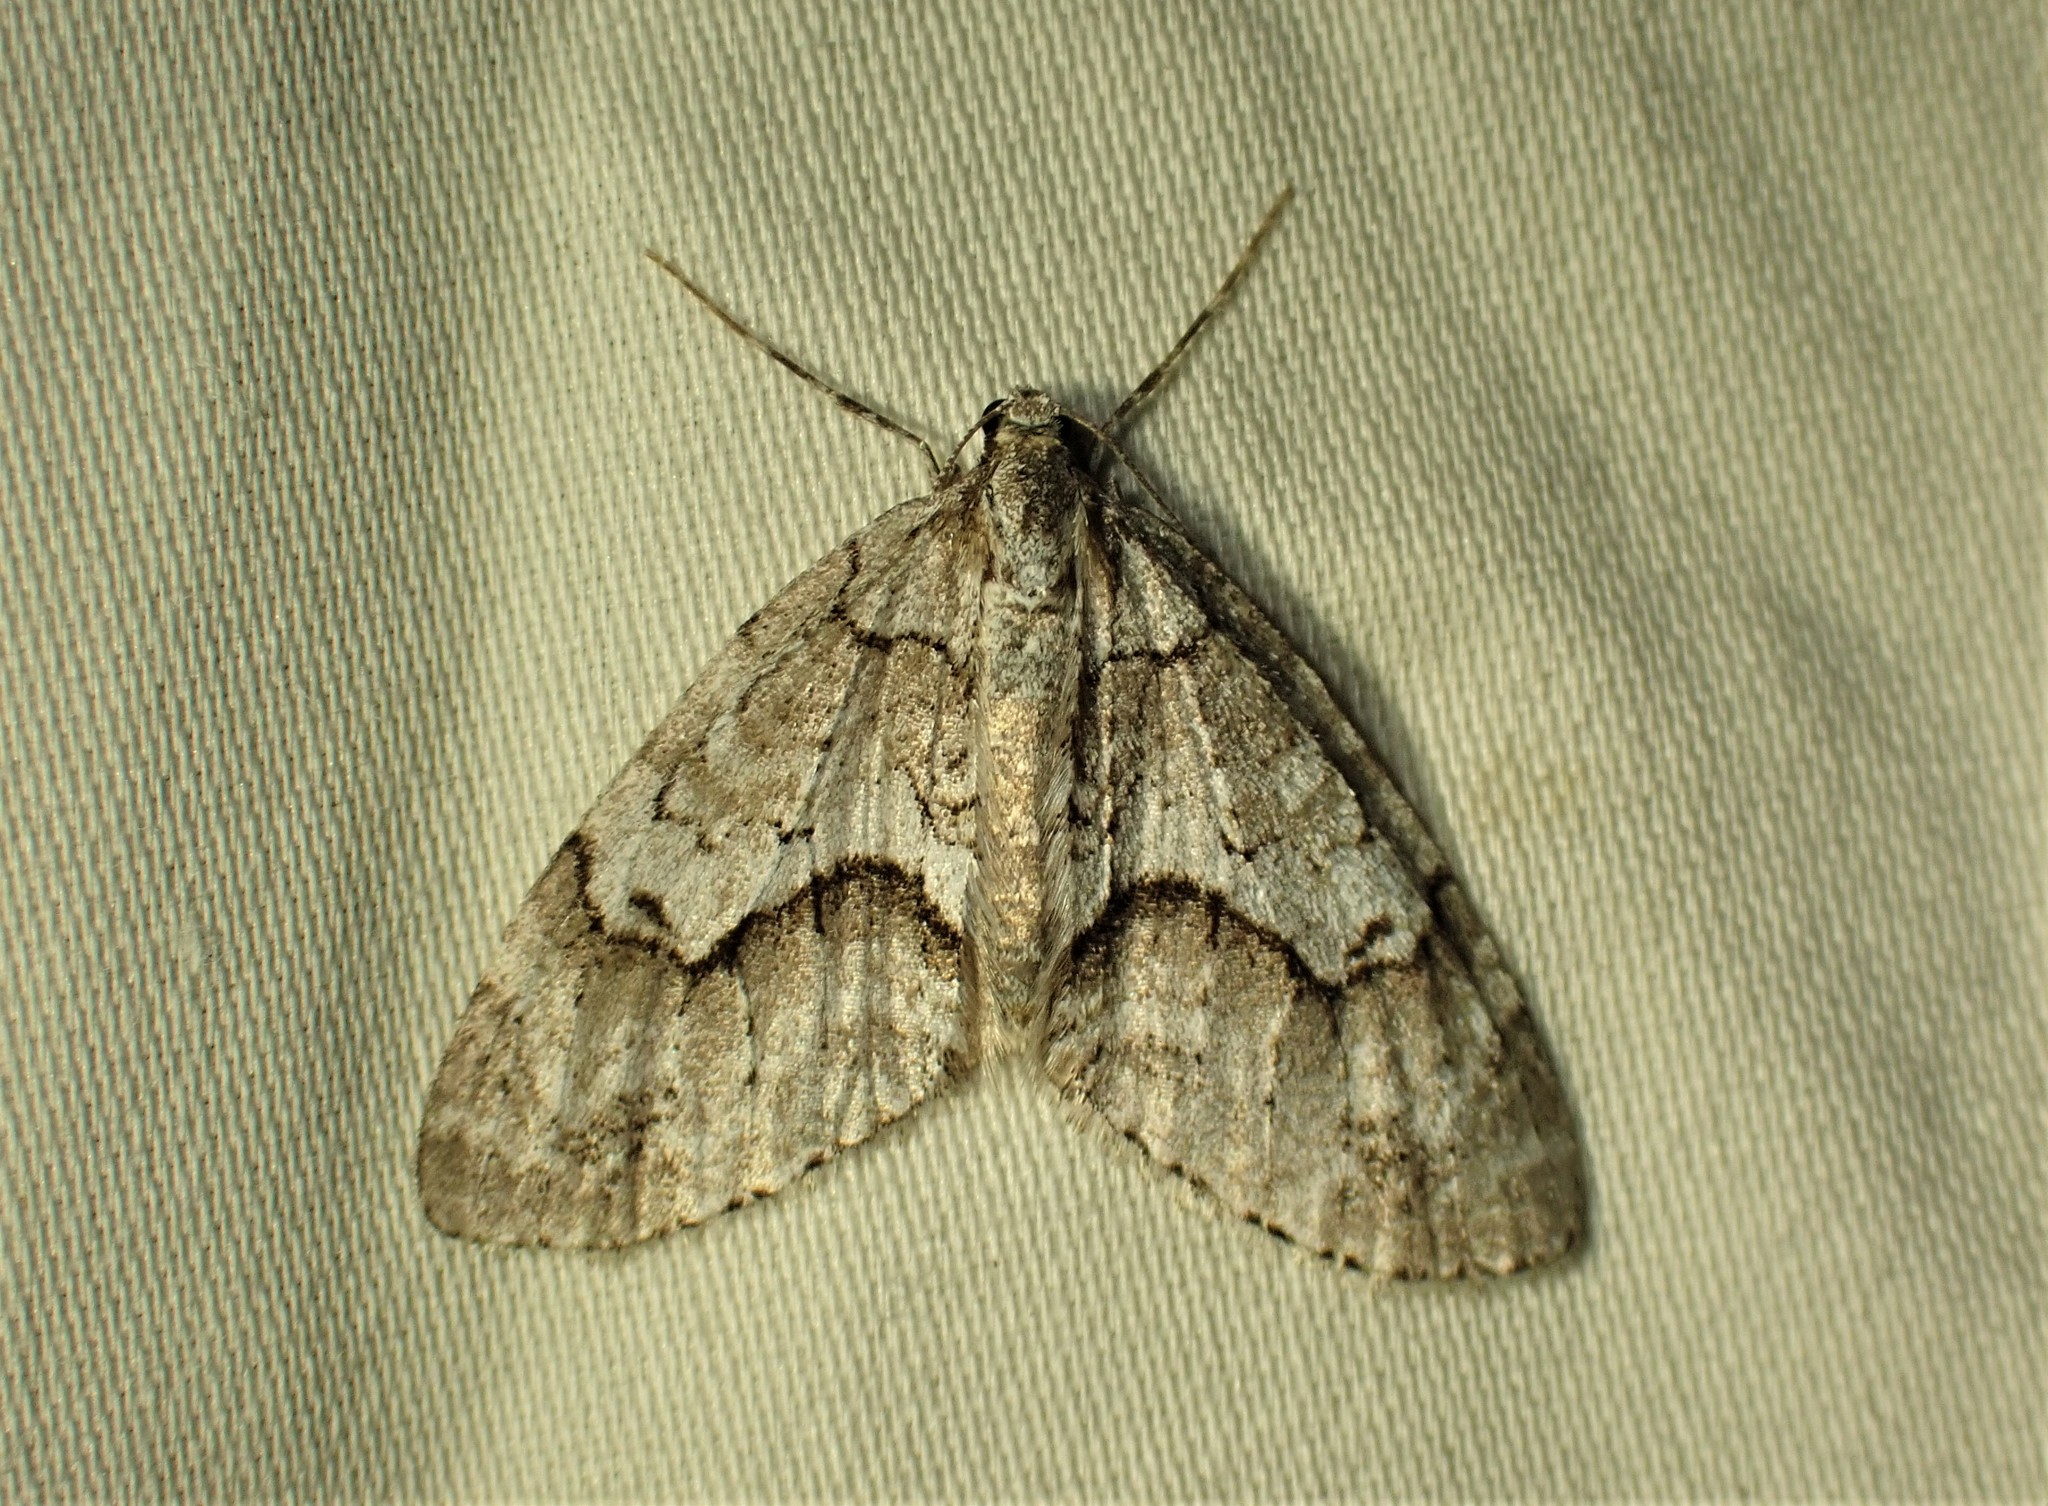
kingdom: Animalia
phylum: Arthropoda
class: Insecta
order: Lepidoptera
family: Geometridae
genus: Cladara
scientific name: Cladara limitaria
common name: Mottled gray carpet
